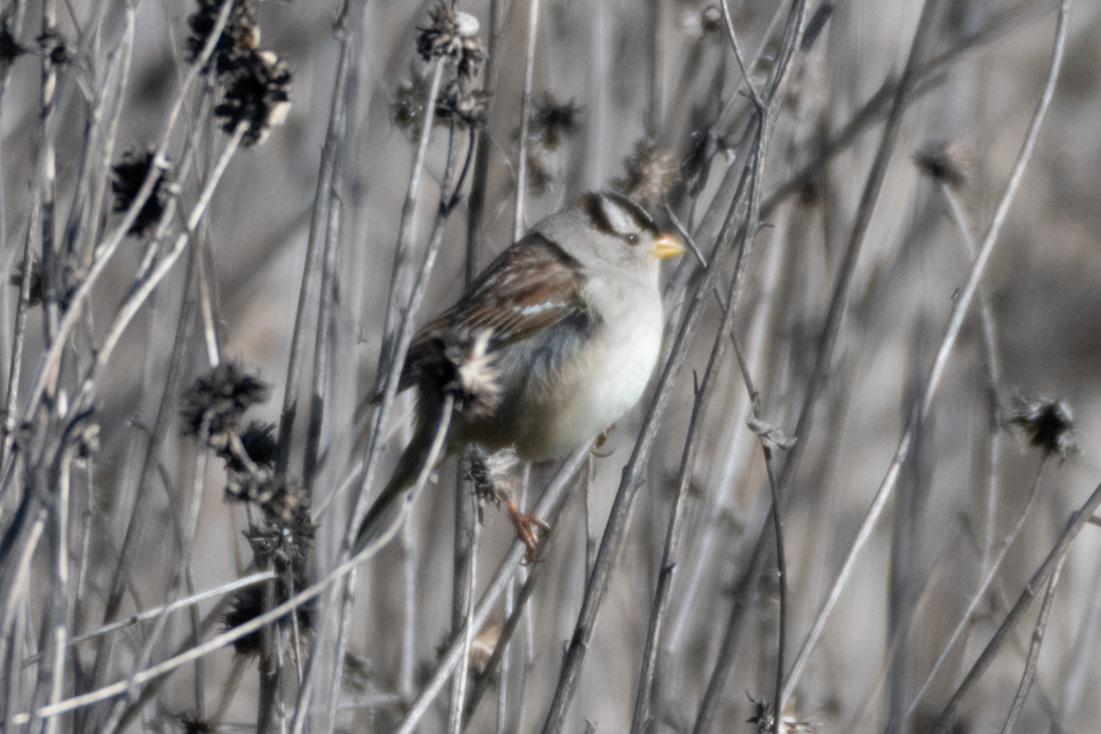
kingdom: Animalia
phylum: Chordata
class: Aves
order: Passeriformes
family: Passerellidae
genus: Zonotrichia
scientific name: Zonotrichia leucophrys
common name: White-crowned sparrow
